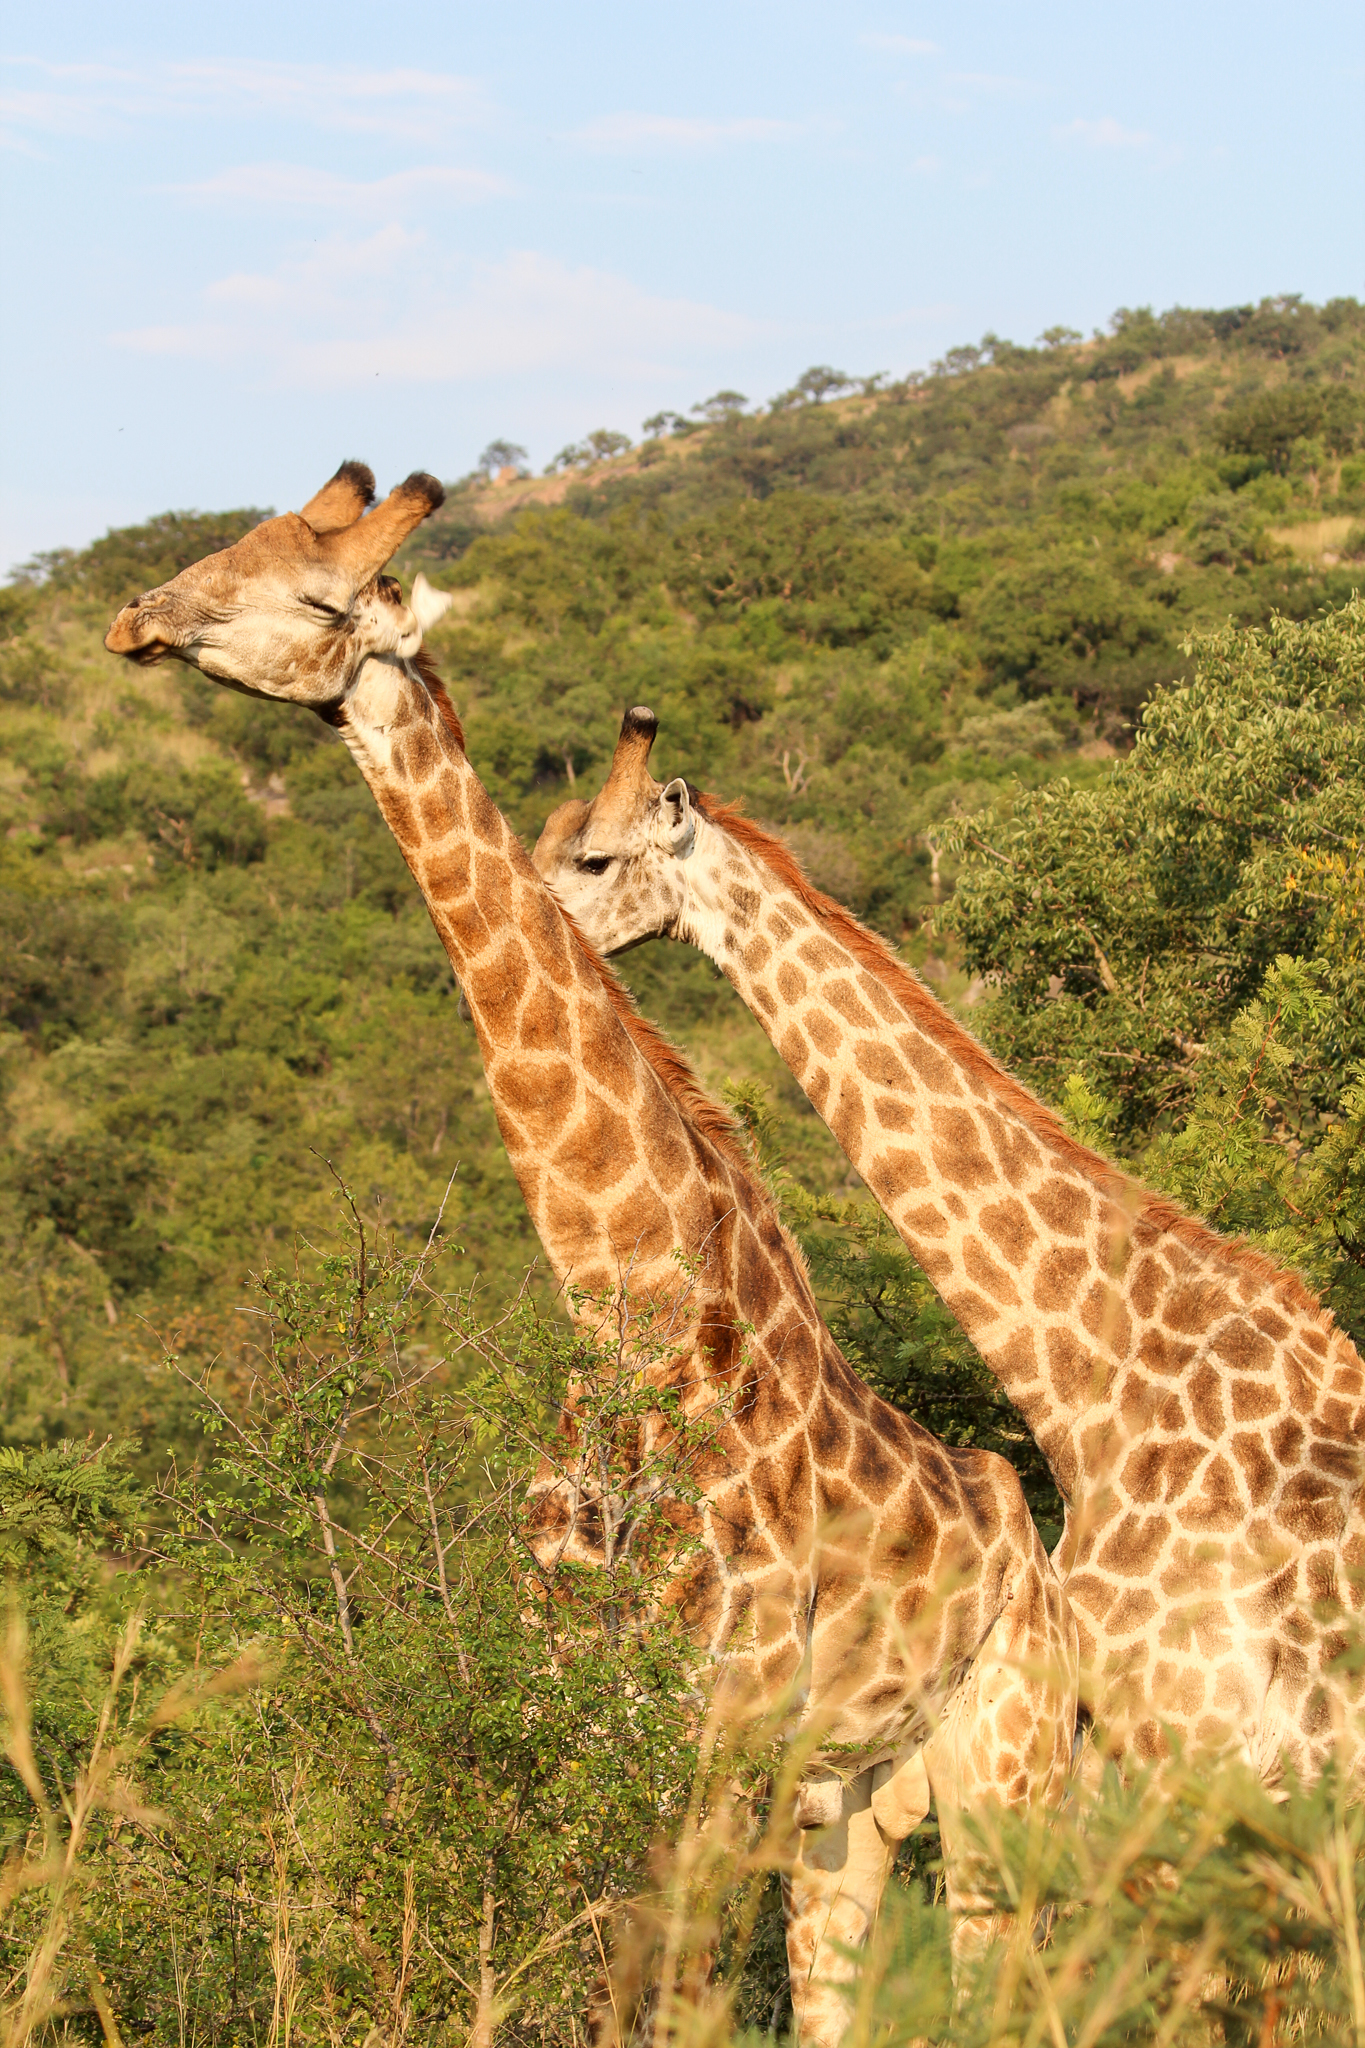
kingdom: Animalia
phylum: Chordata
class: Mammalia
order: Artiodactyla
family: Giraffidae
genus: Giraffa
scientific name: Giraffa giraffa
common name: Southern giraffe
